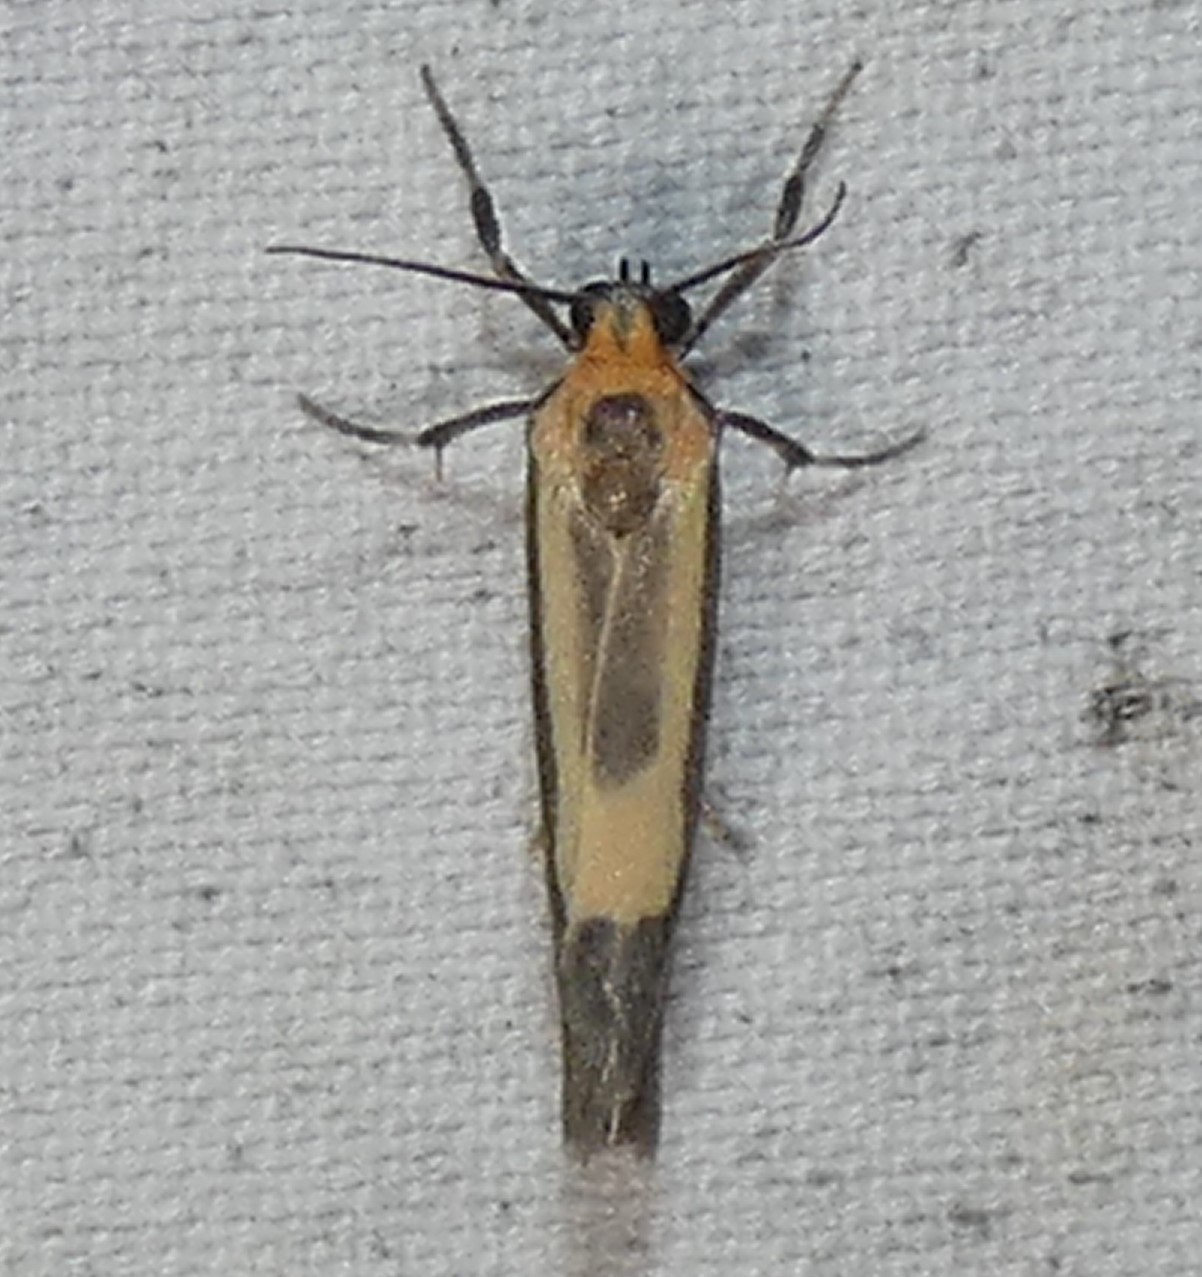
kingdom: Animalia
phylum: Arthropoda
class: Insecta
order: Lepidoptera
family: Erebidae
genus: Cisthene
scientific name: Cisthene packardii
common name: Packard's lichen moth
